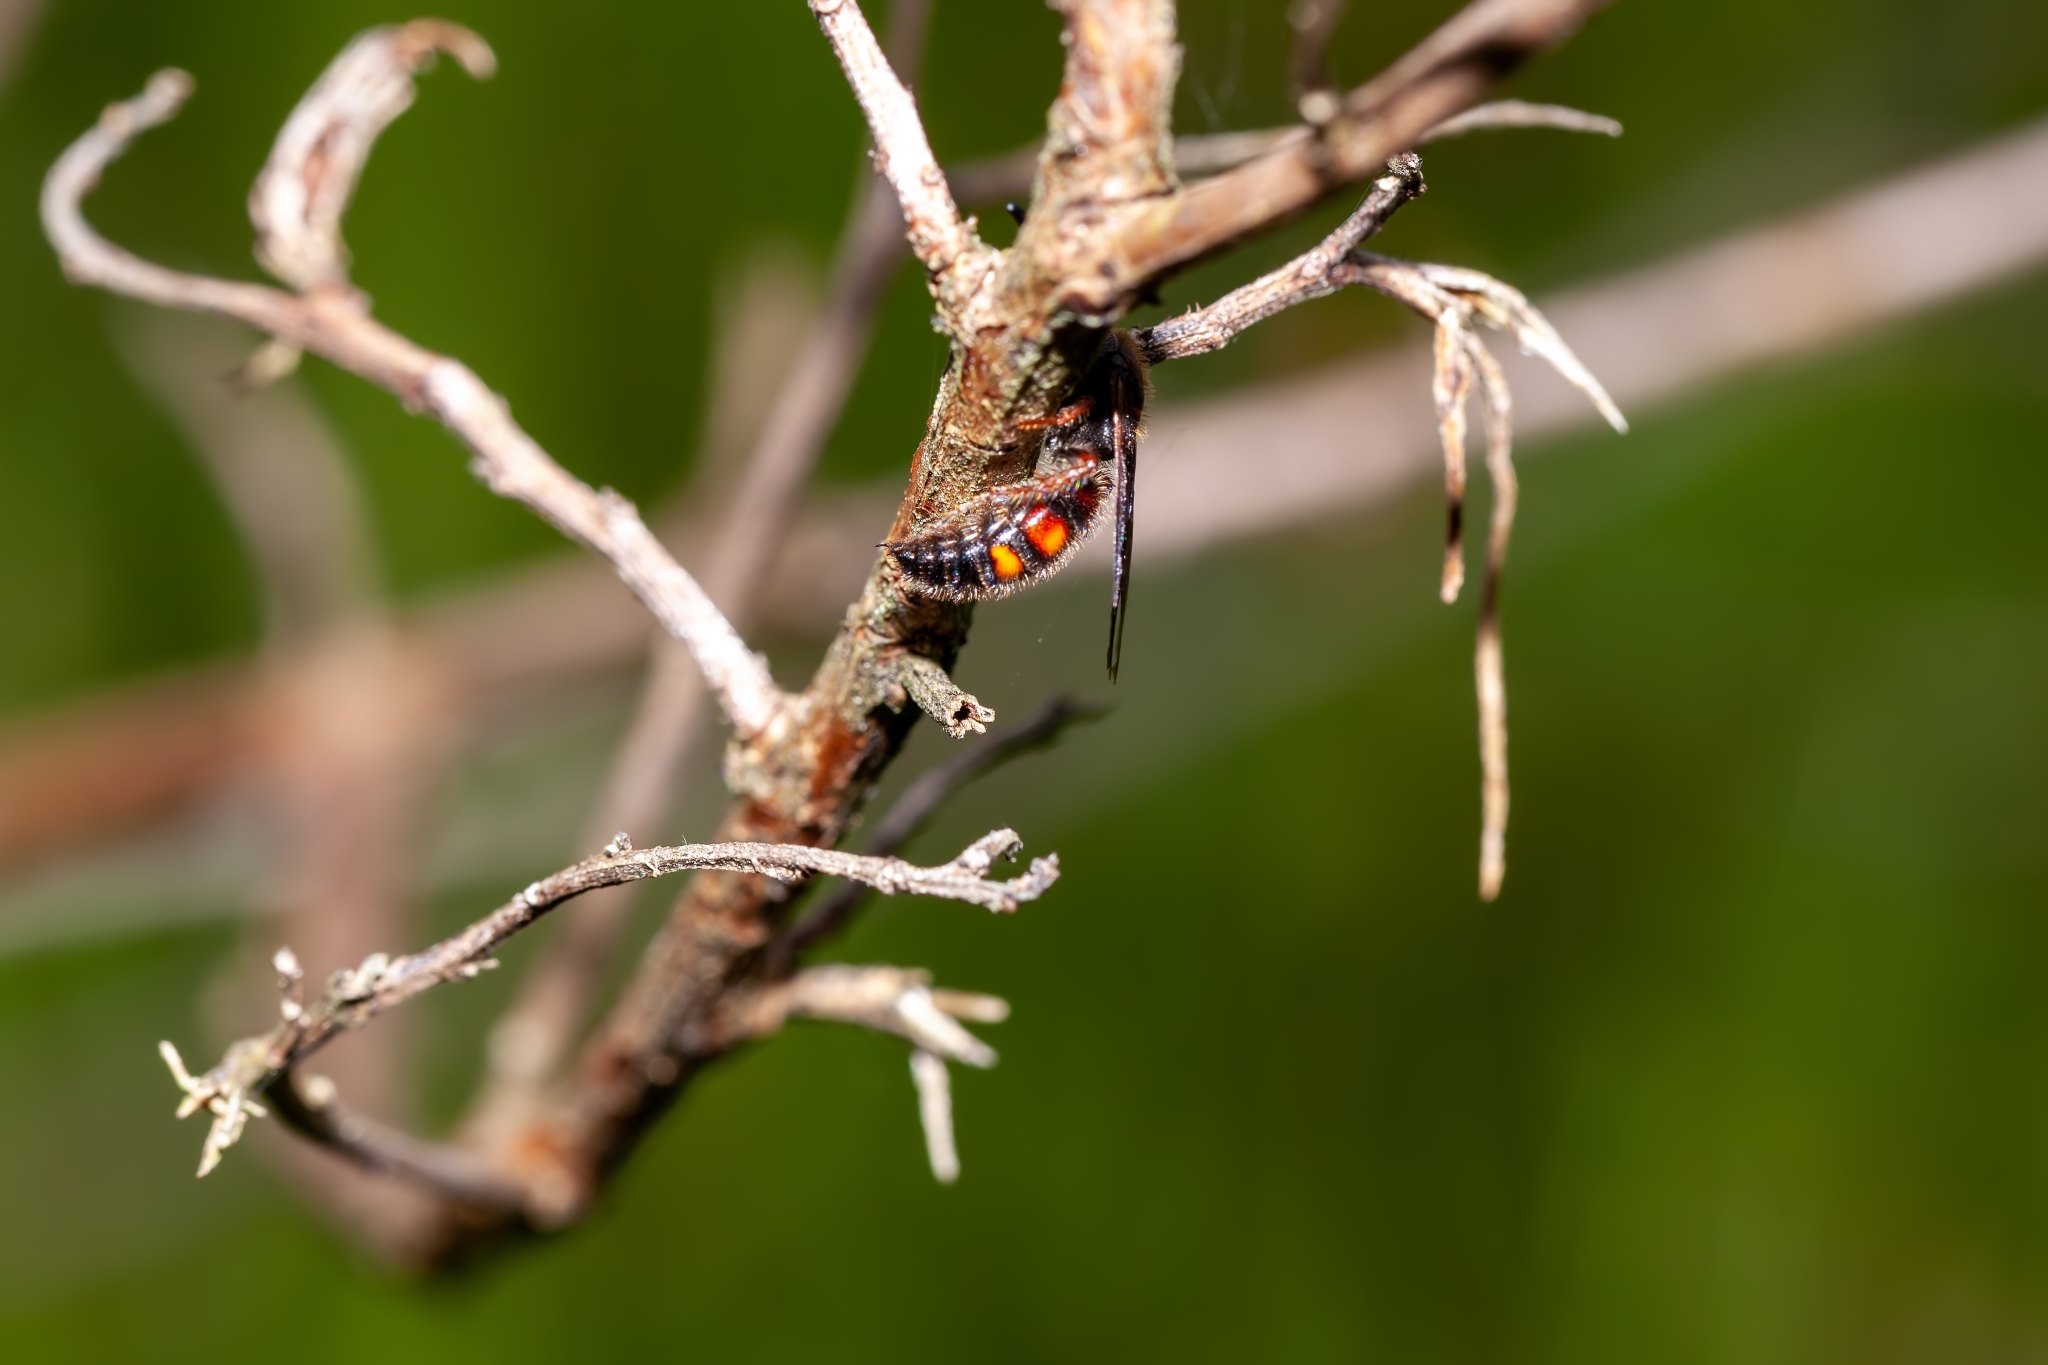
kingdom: Animalia
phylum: Arthropoda
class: Insecta
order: Hymenoptera
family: Scoliidae
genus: Scolia
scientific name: Scolia nobilitata
